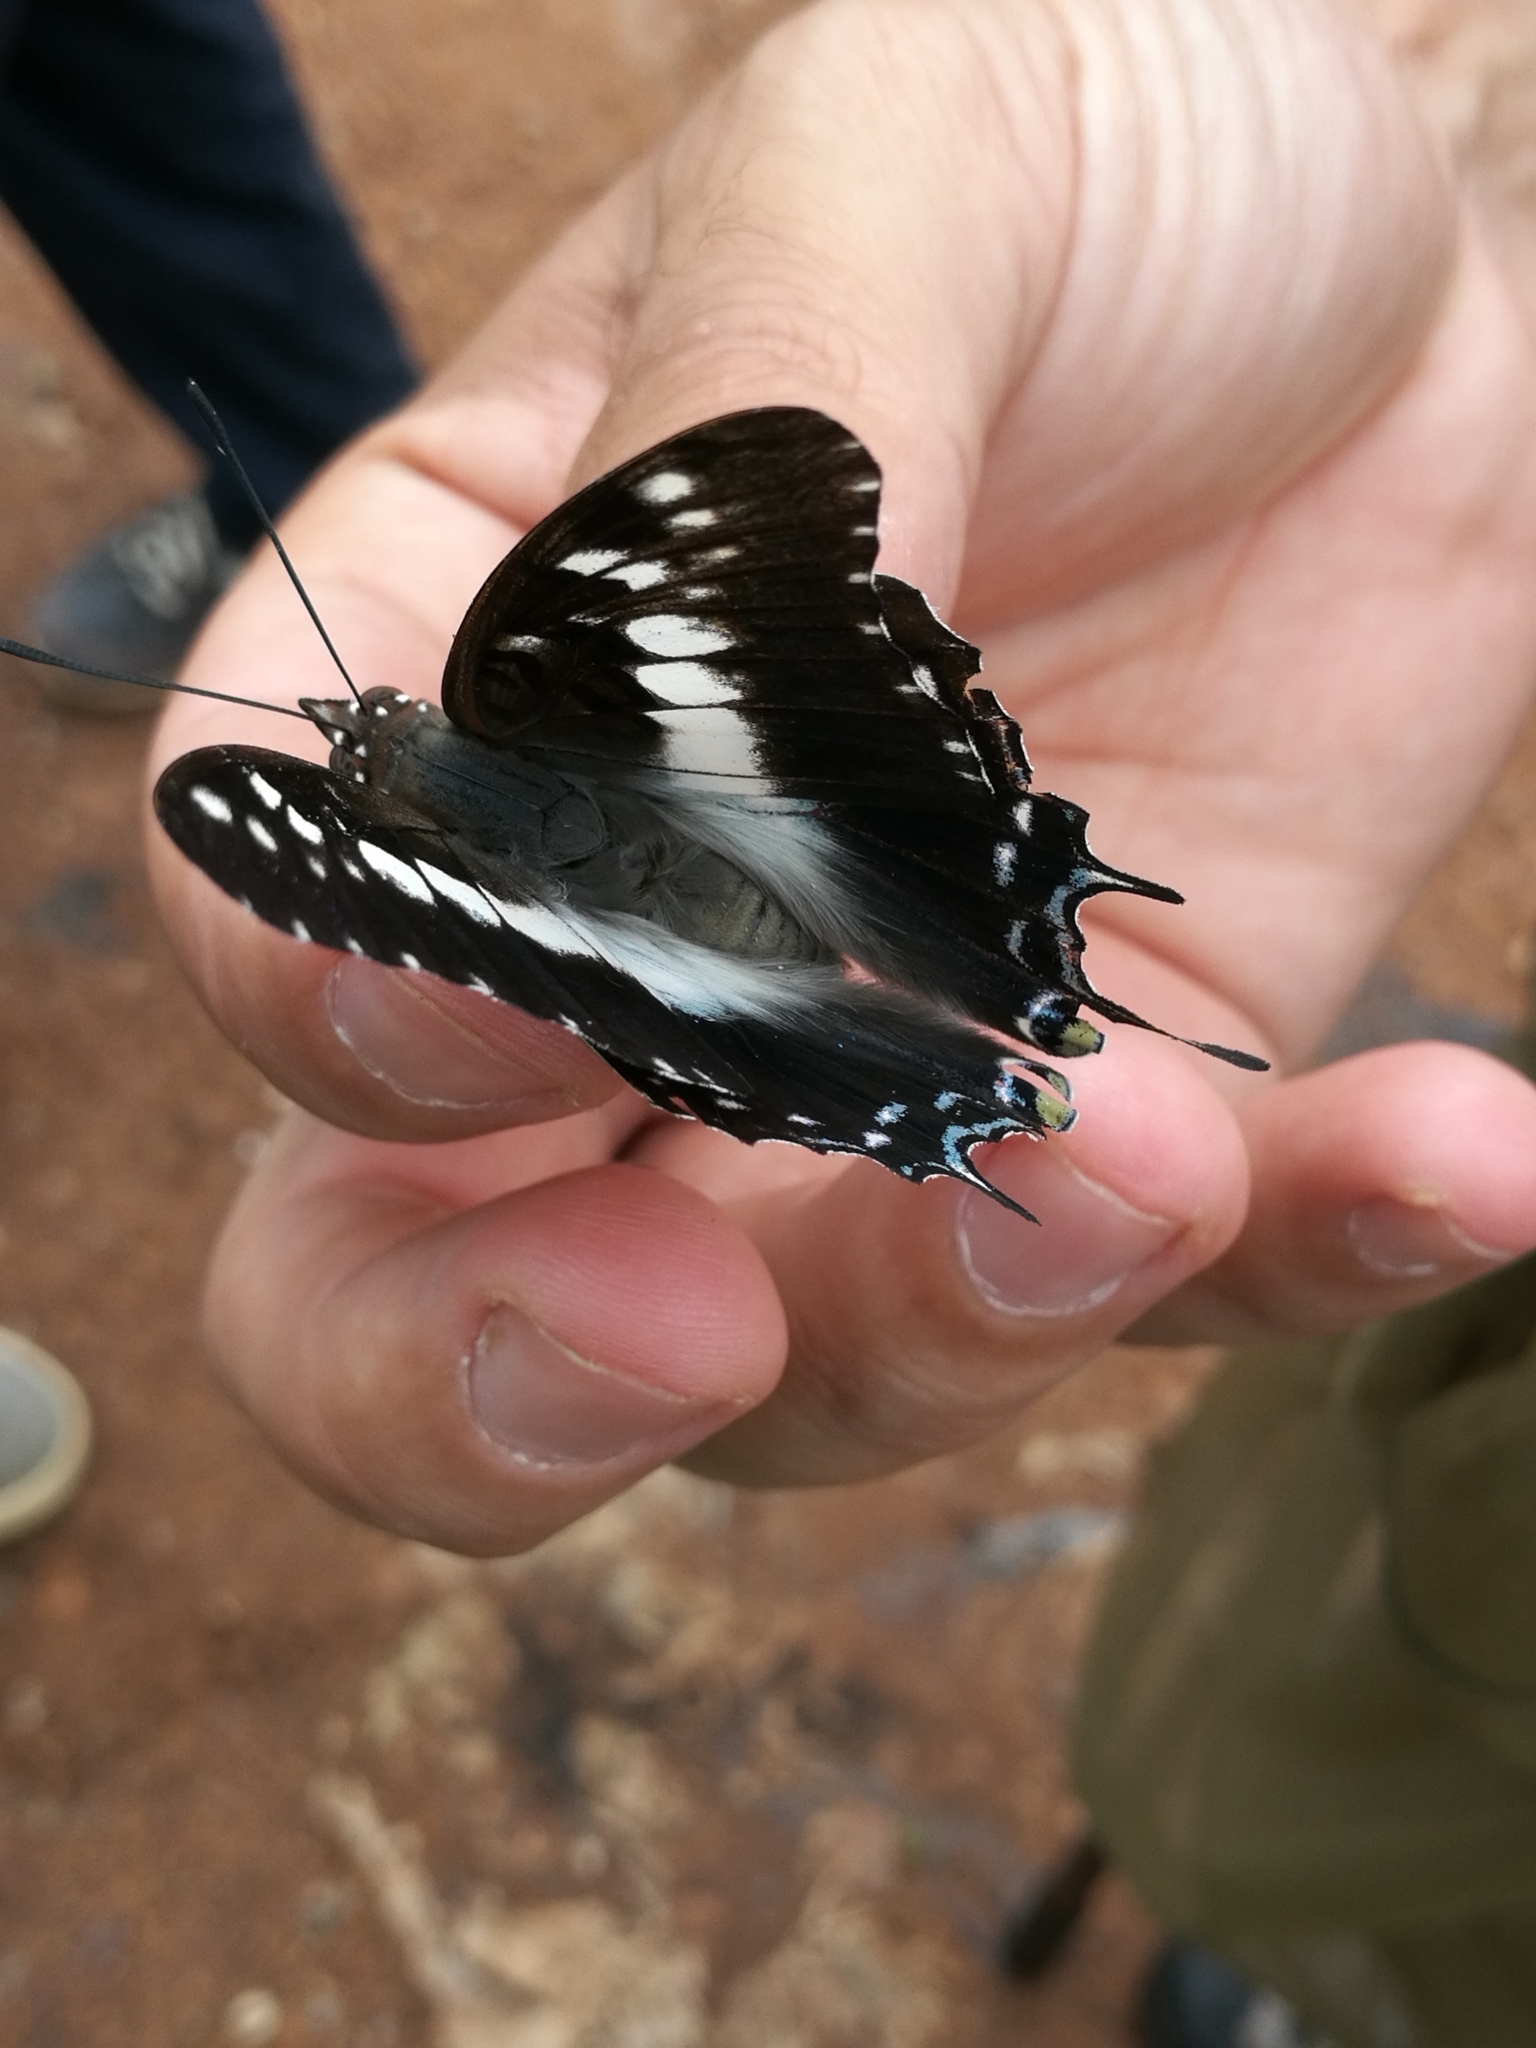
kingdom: Animalia
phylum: Arthropoda
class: Insecta
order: Lepidoptera
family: Nymphalidae
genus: Charaxes
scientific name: Charaxes achaemenes
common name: Bushveld charaxes
